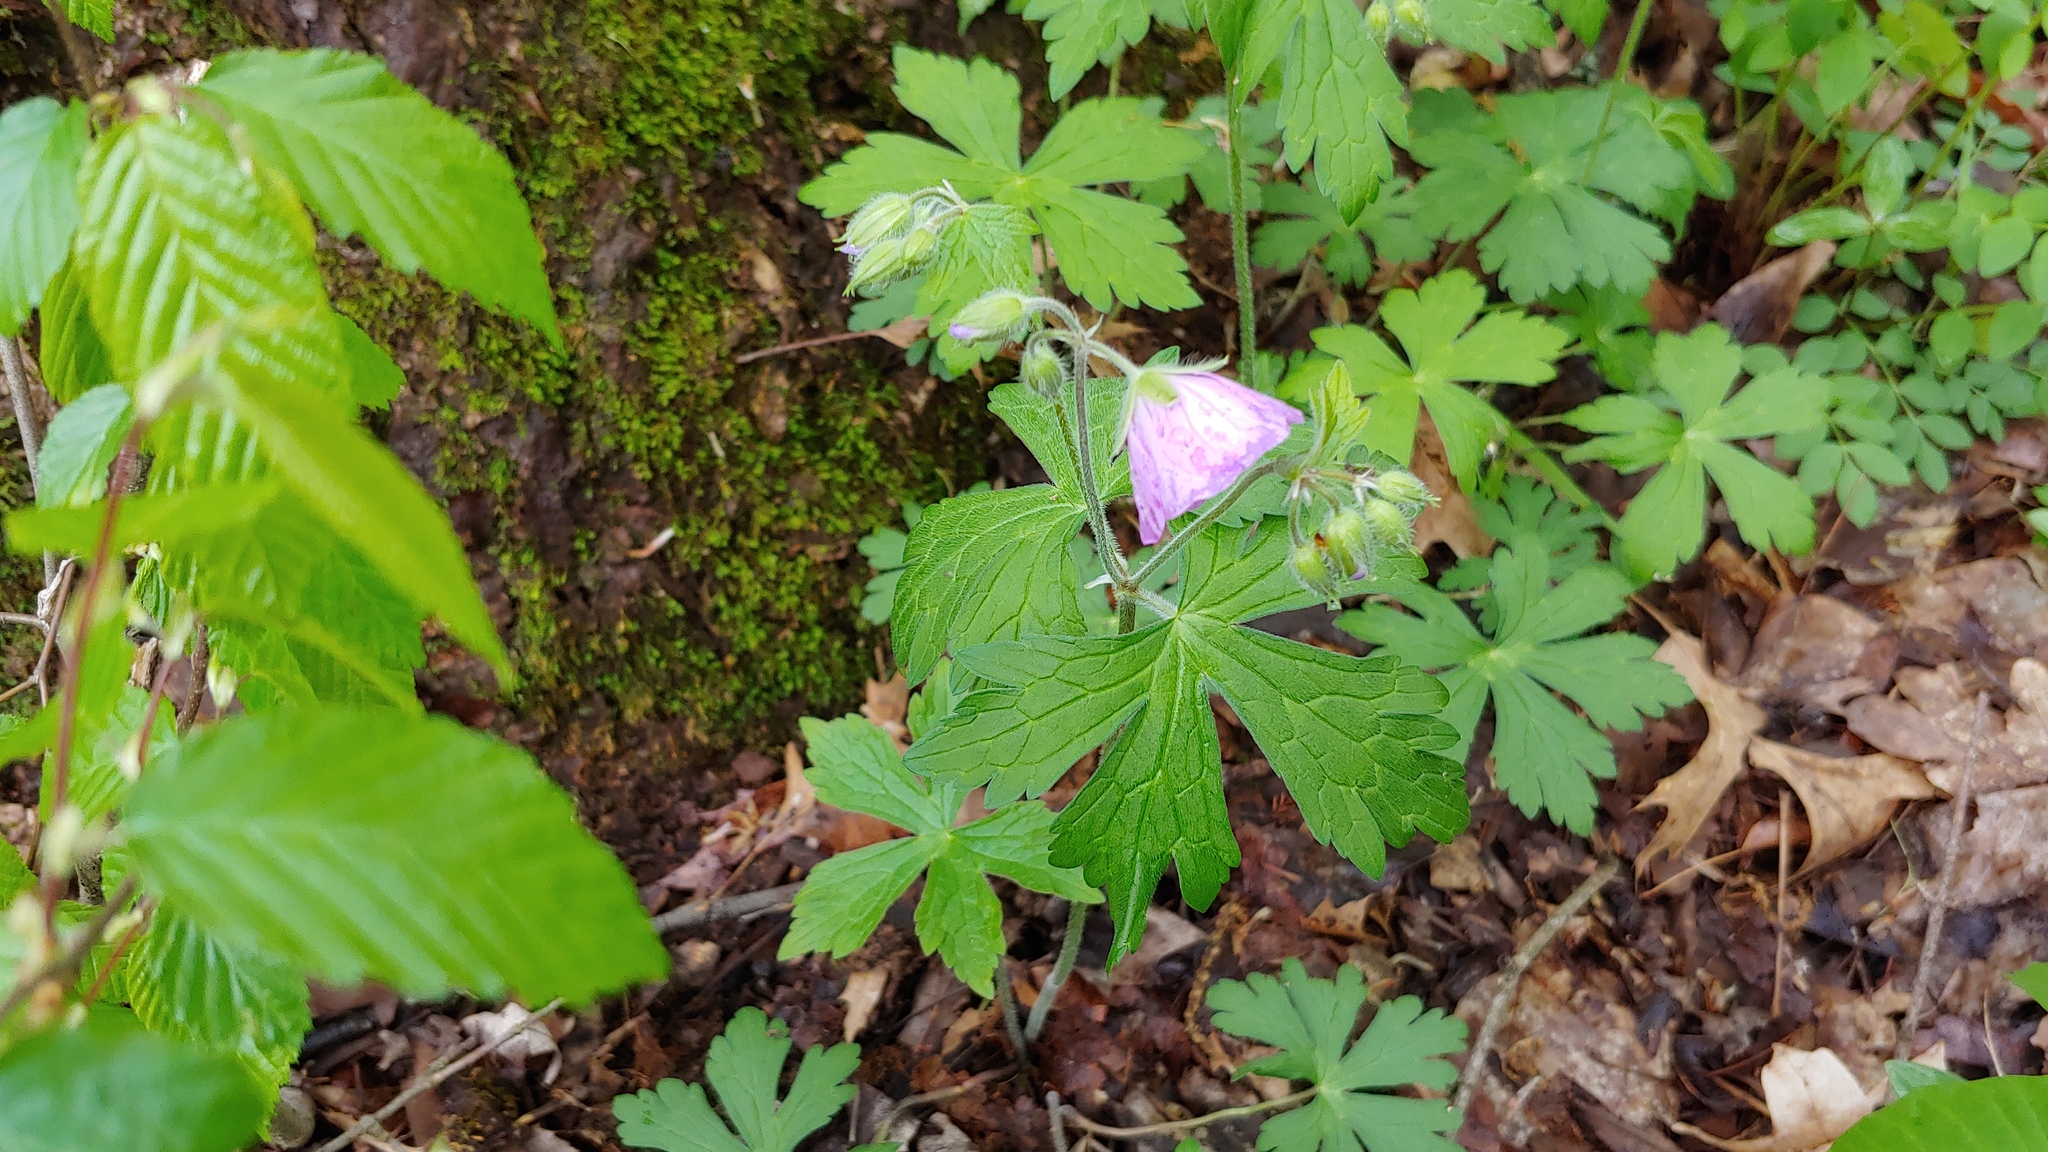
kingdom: Plantae
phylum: Tracheophyta
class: Magnoliopsida
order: Geraniales
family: Geraniaceae
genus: Geranium
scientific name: Geranium maculatum
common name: Spotted geranium
